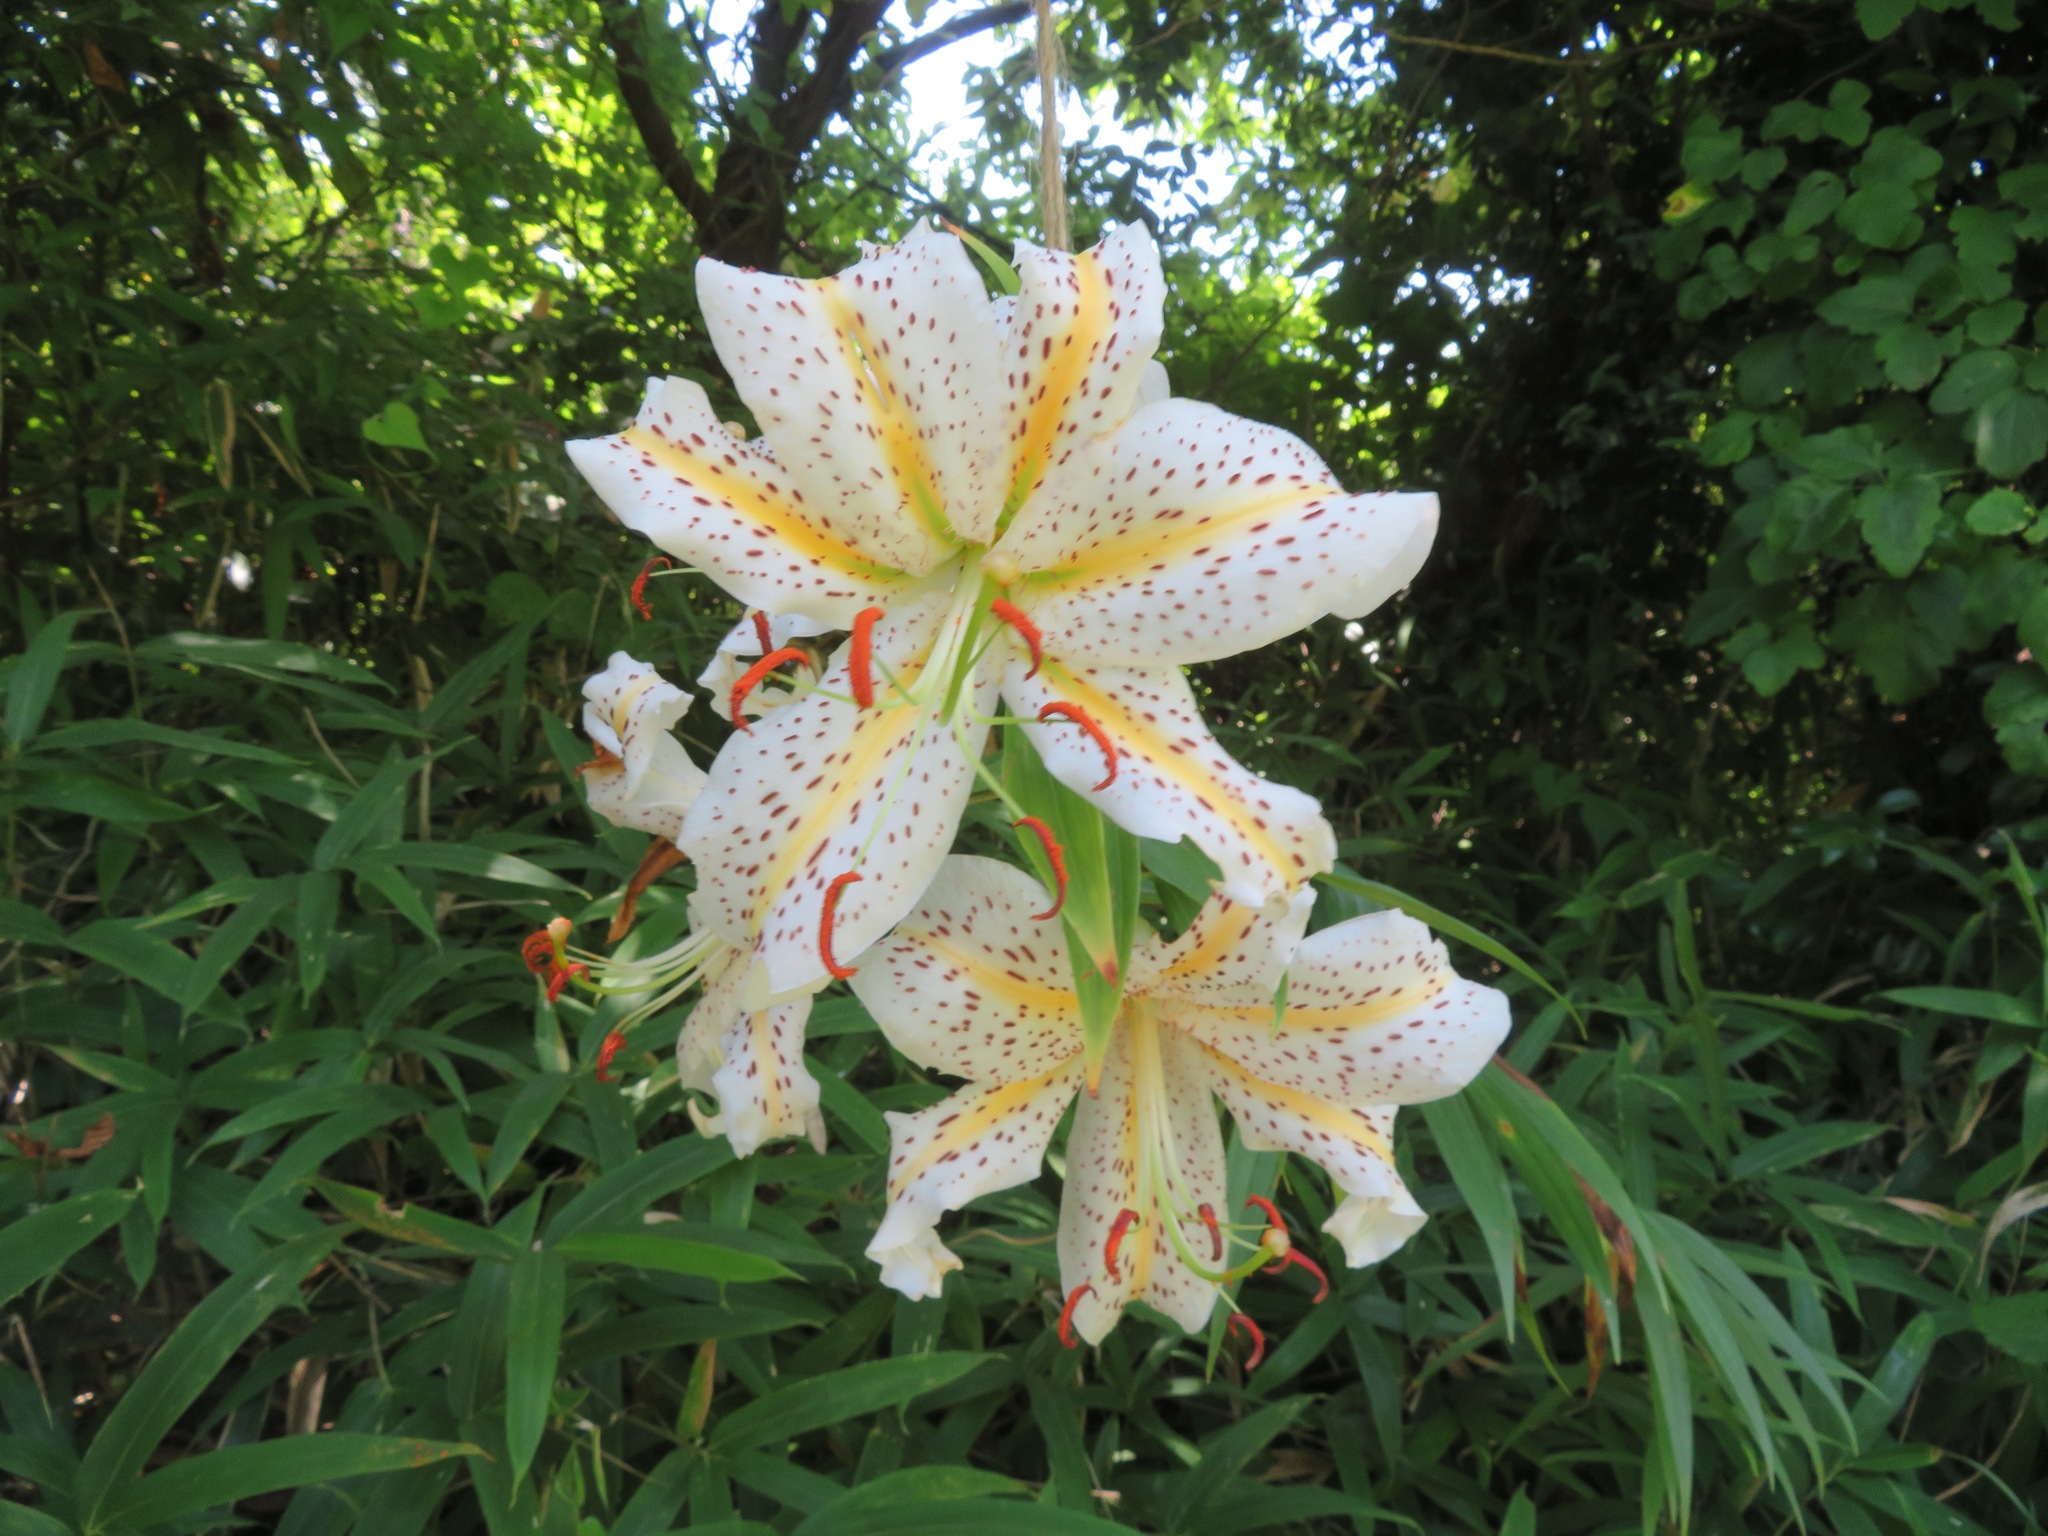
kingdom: Plantae
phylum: Tracheophyta
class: Liliopsida
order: Liliales
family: Liliaceae
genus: Lilium
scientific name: Lilium auratum
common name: Golden-ray lily
